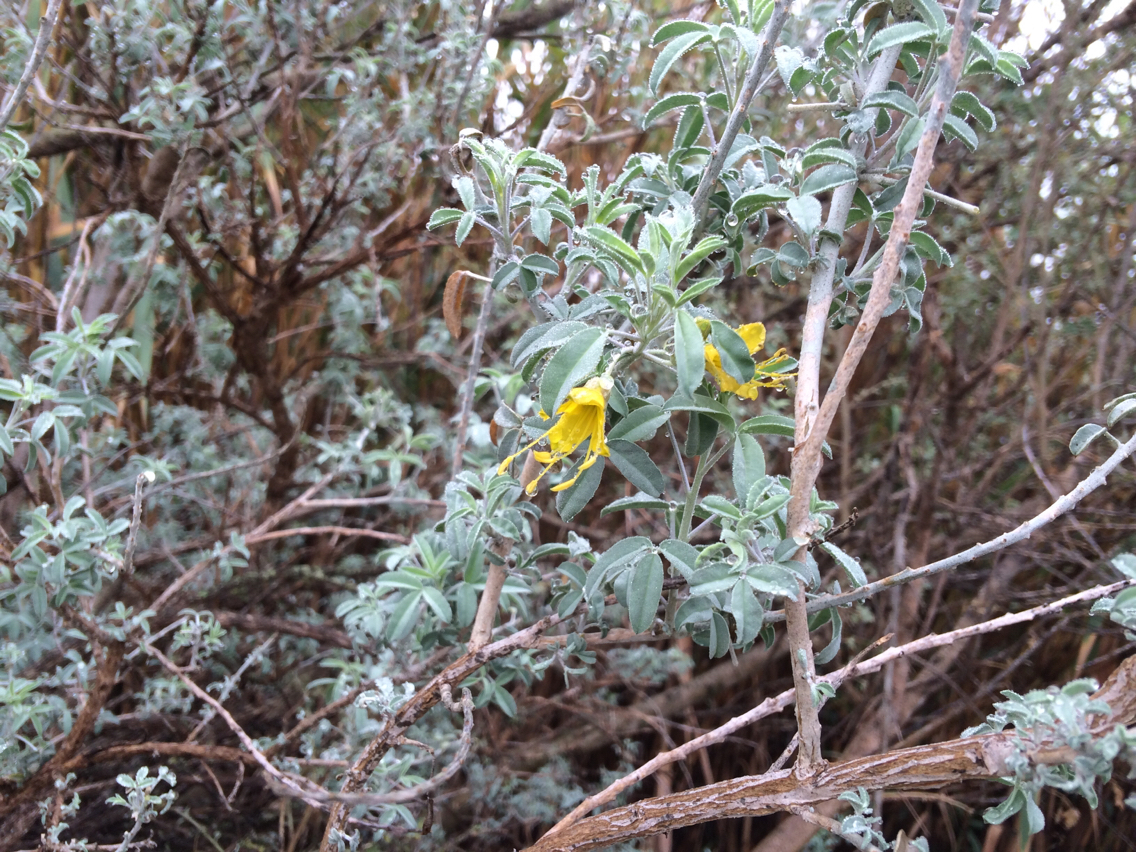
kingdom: Plantae
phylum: Tracheophyta
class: Magnoliopsida
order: Brassicales
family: Cleomaceae
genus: Cleomella
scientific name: Cleomella arborea
